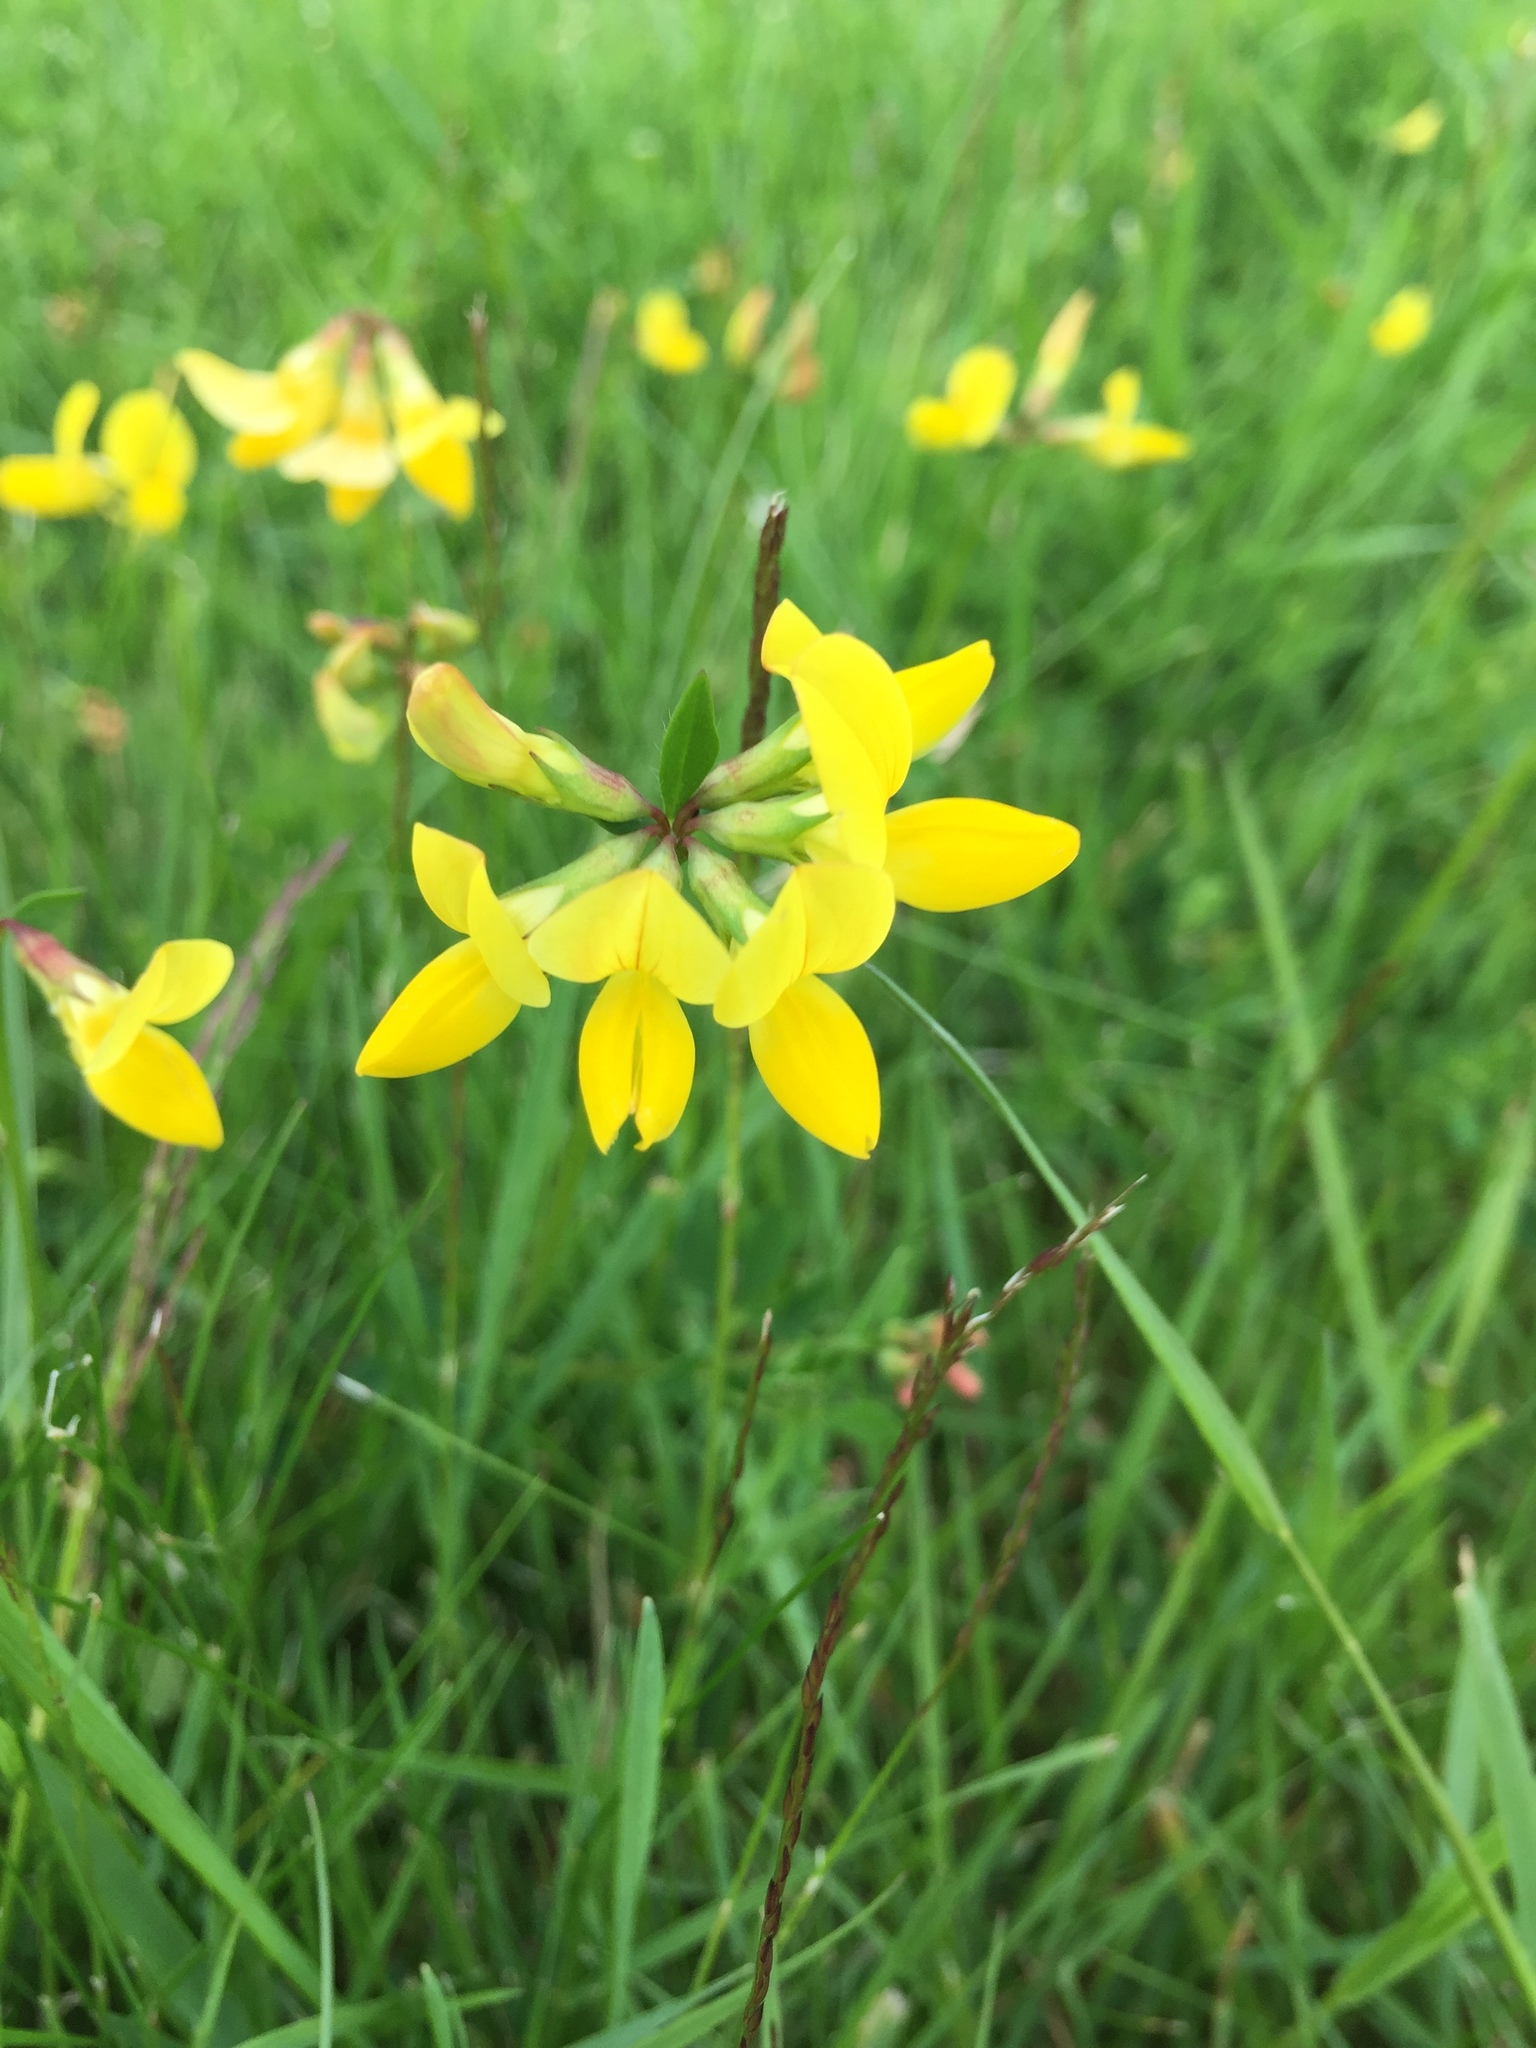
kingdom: Plantae
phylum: Tracheophyta
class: Magnoliopsida
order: Fabales
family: Fabaceae
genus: Lotus
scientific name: Lotus corniculatus
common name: Common bird's-foot-trefoil
